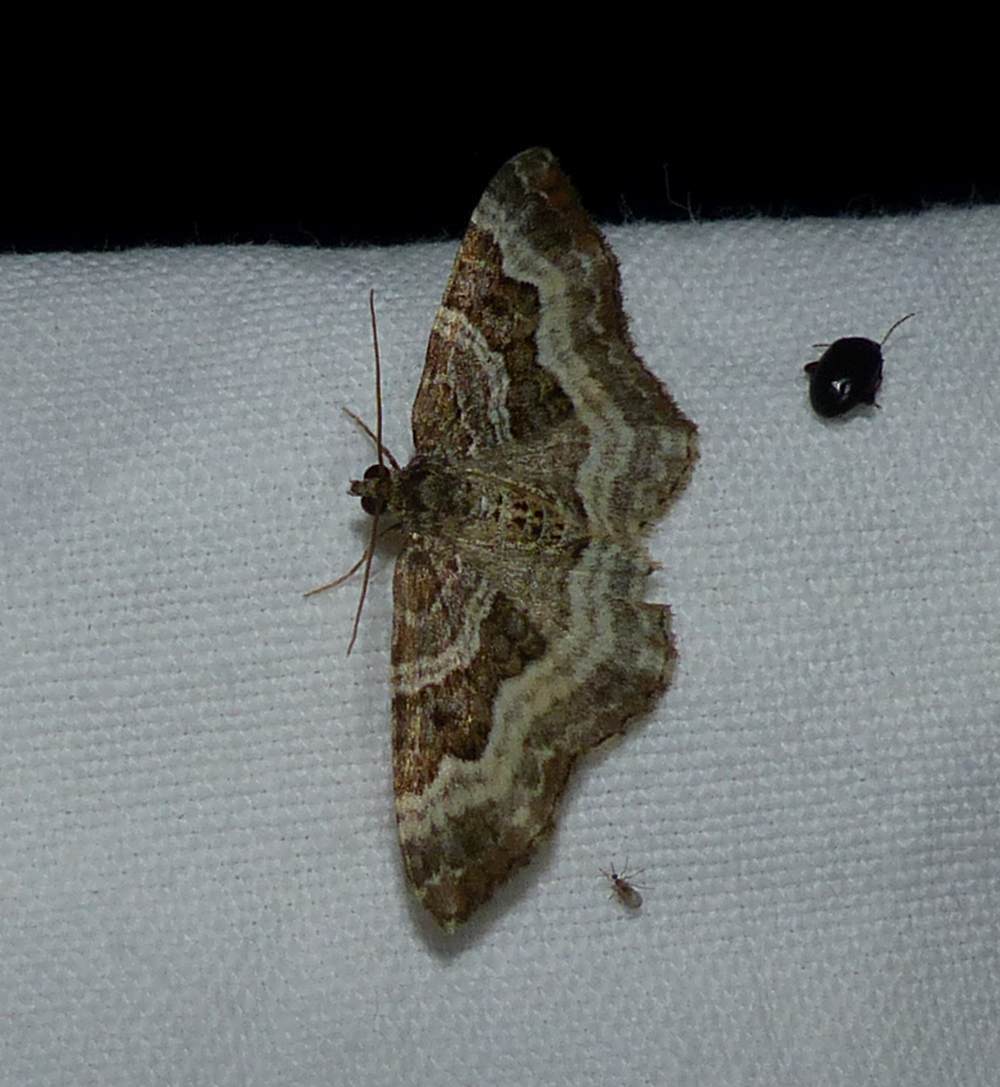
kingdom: Animalia
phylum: Arthropoda
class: Insecta
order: Lepidoptera
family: Geometridae
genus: Epirrhoe
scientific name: Epirrhoe alternata
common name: Common carpet
